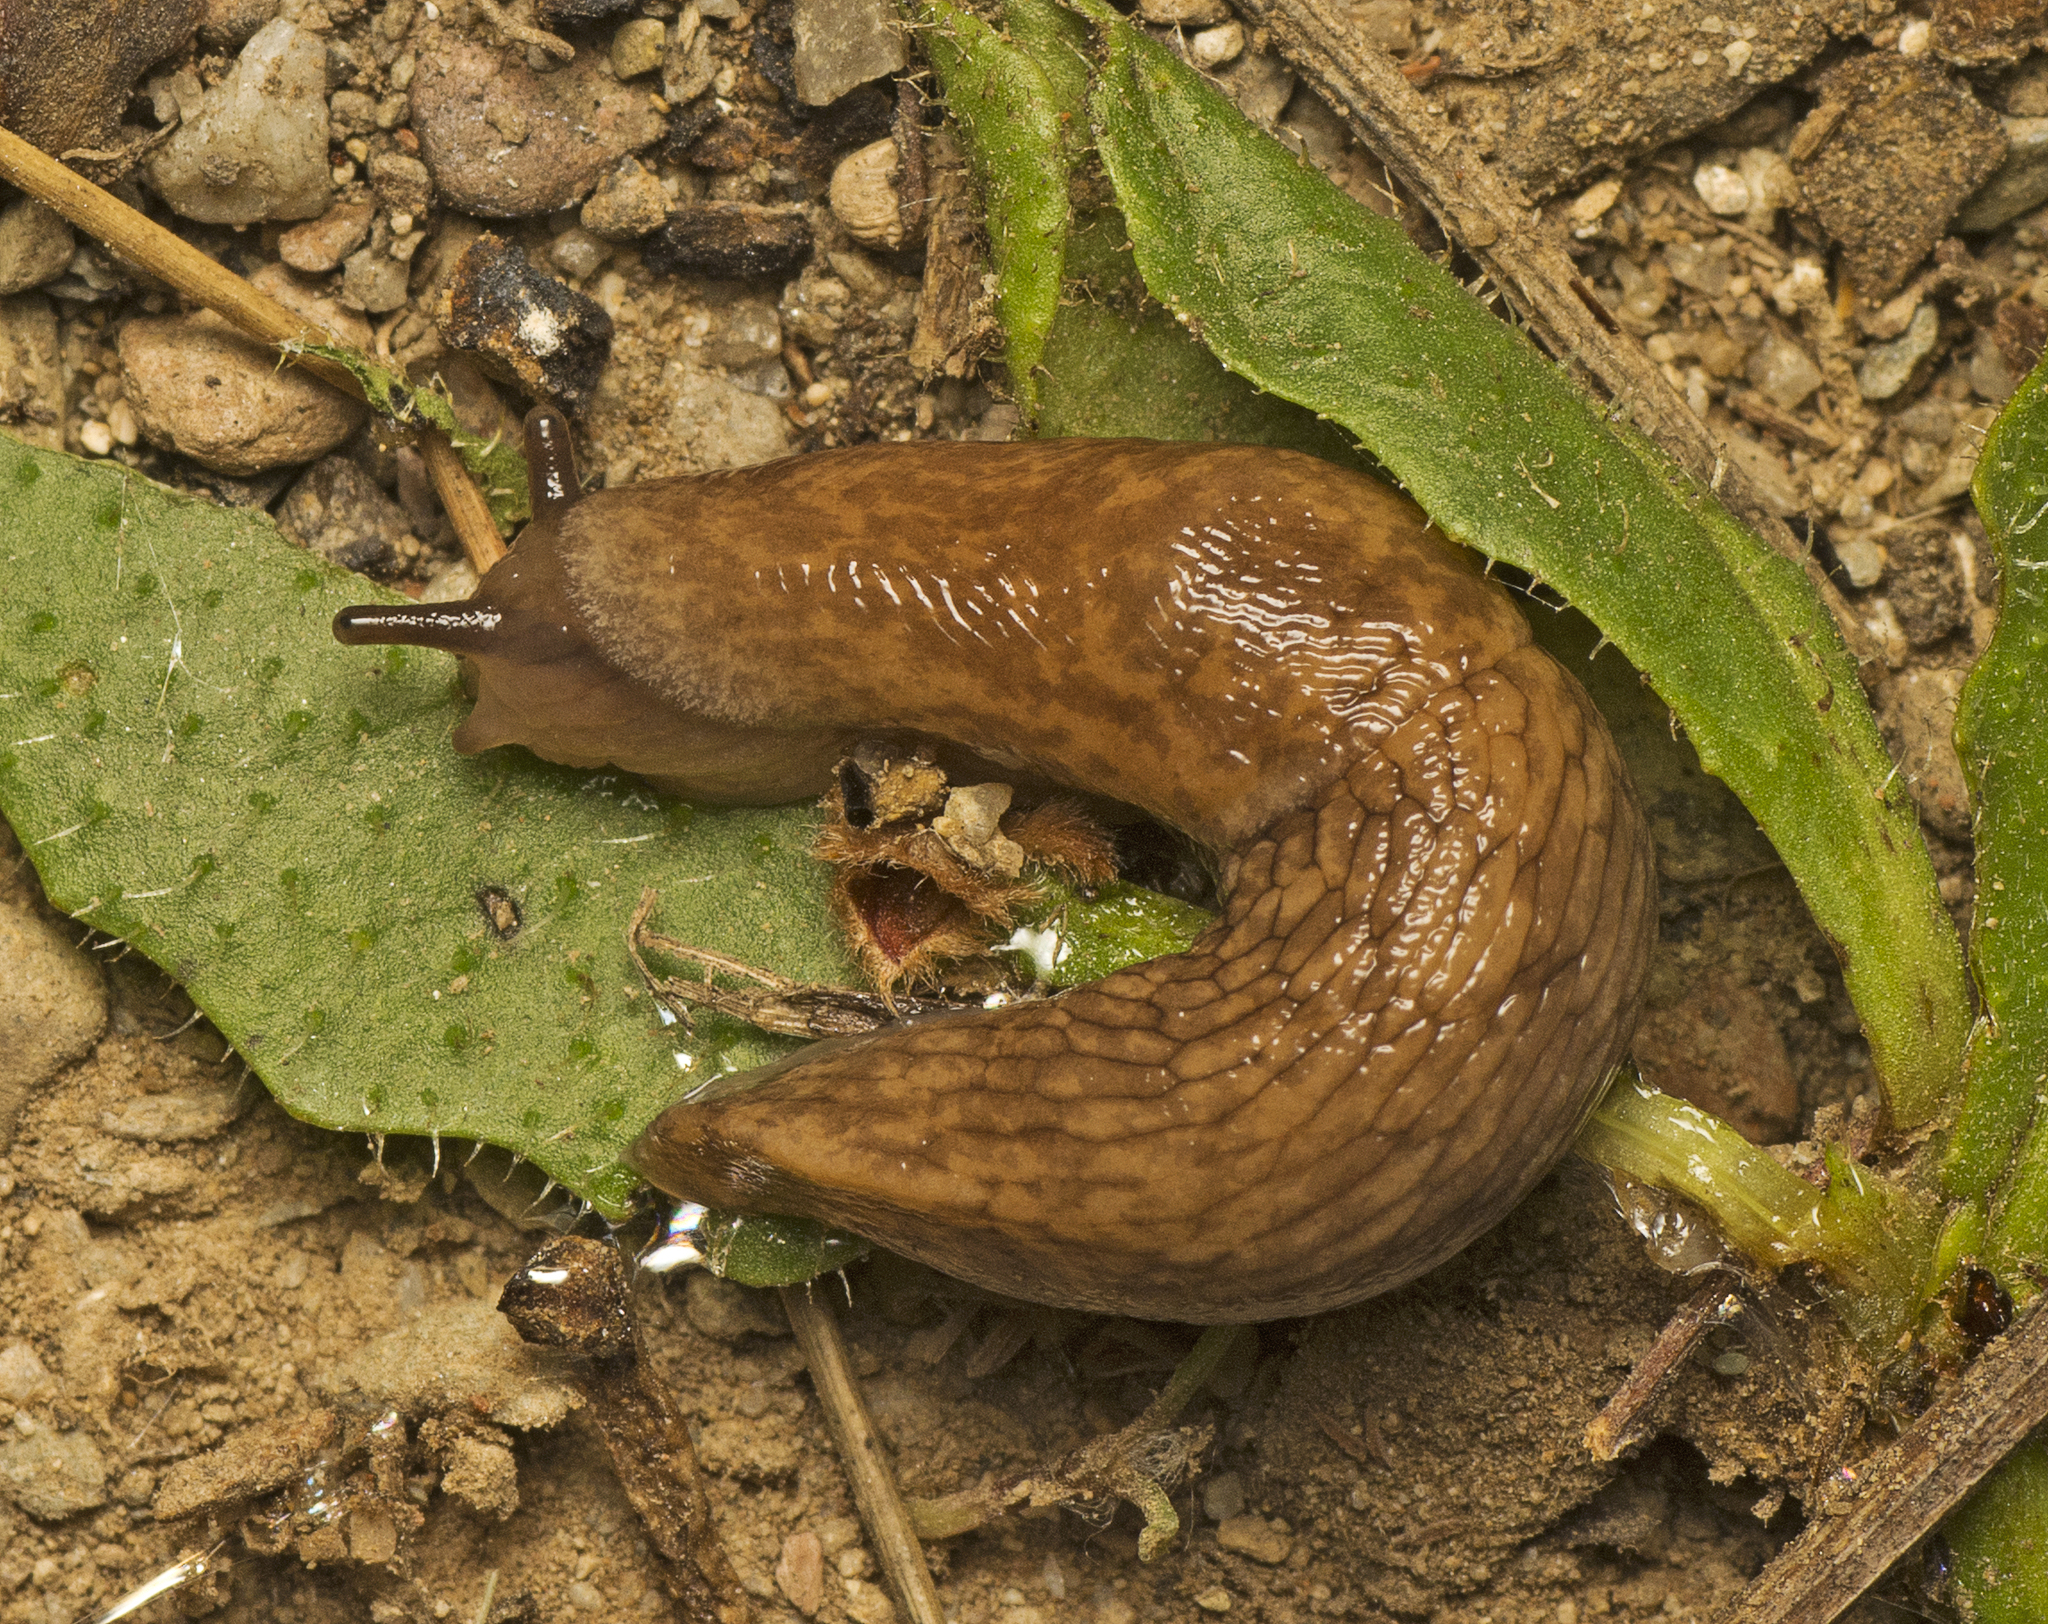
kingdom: Animalia
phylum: Mollusca
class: Gastropoda
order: Stylommatophora
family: Agriolimacidae
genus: Deroceras
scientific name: Deroceras reticulatum
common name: Gray field slug
